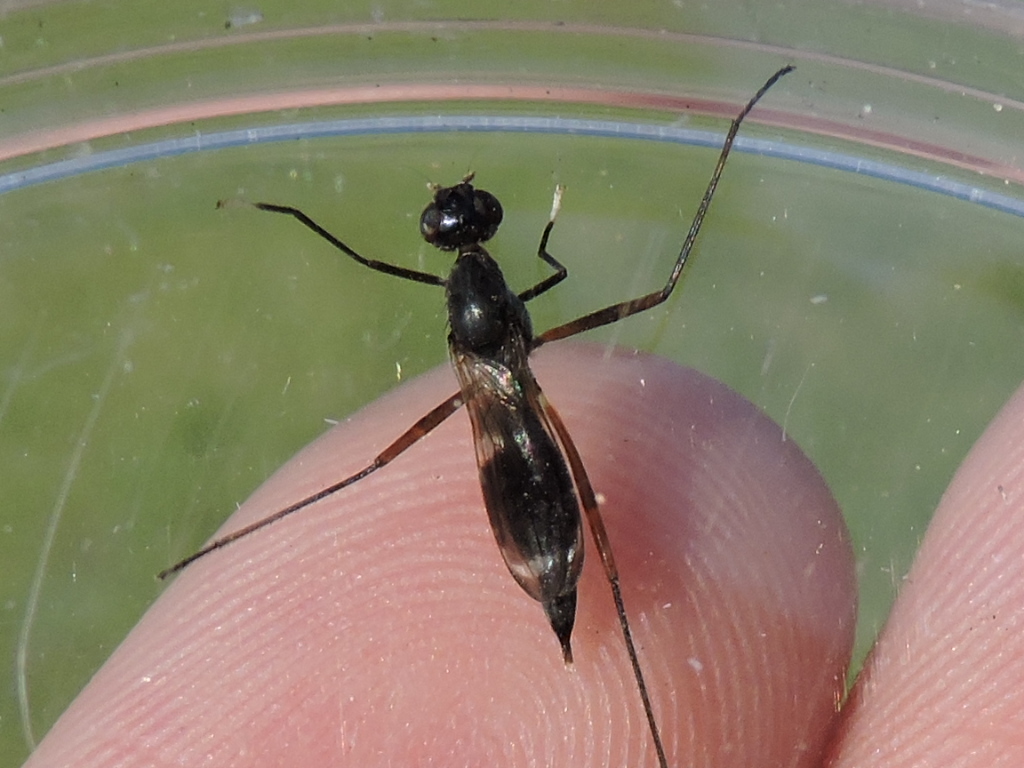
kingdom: Animalia
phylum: Arthropoda
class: Insecta
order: Diptera
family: Micropezidae
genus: Taeniaptera
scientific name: Taeniaptera trivittata
